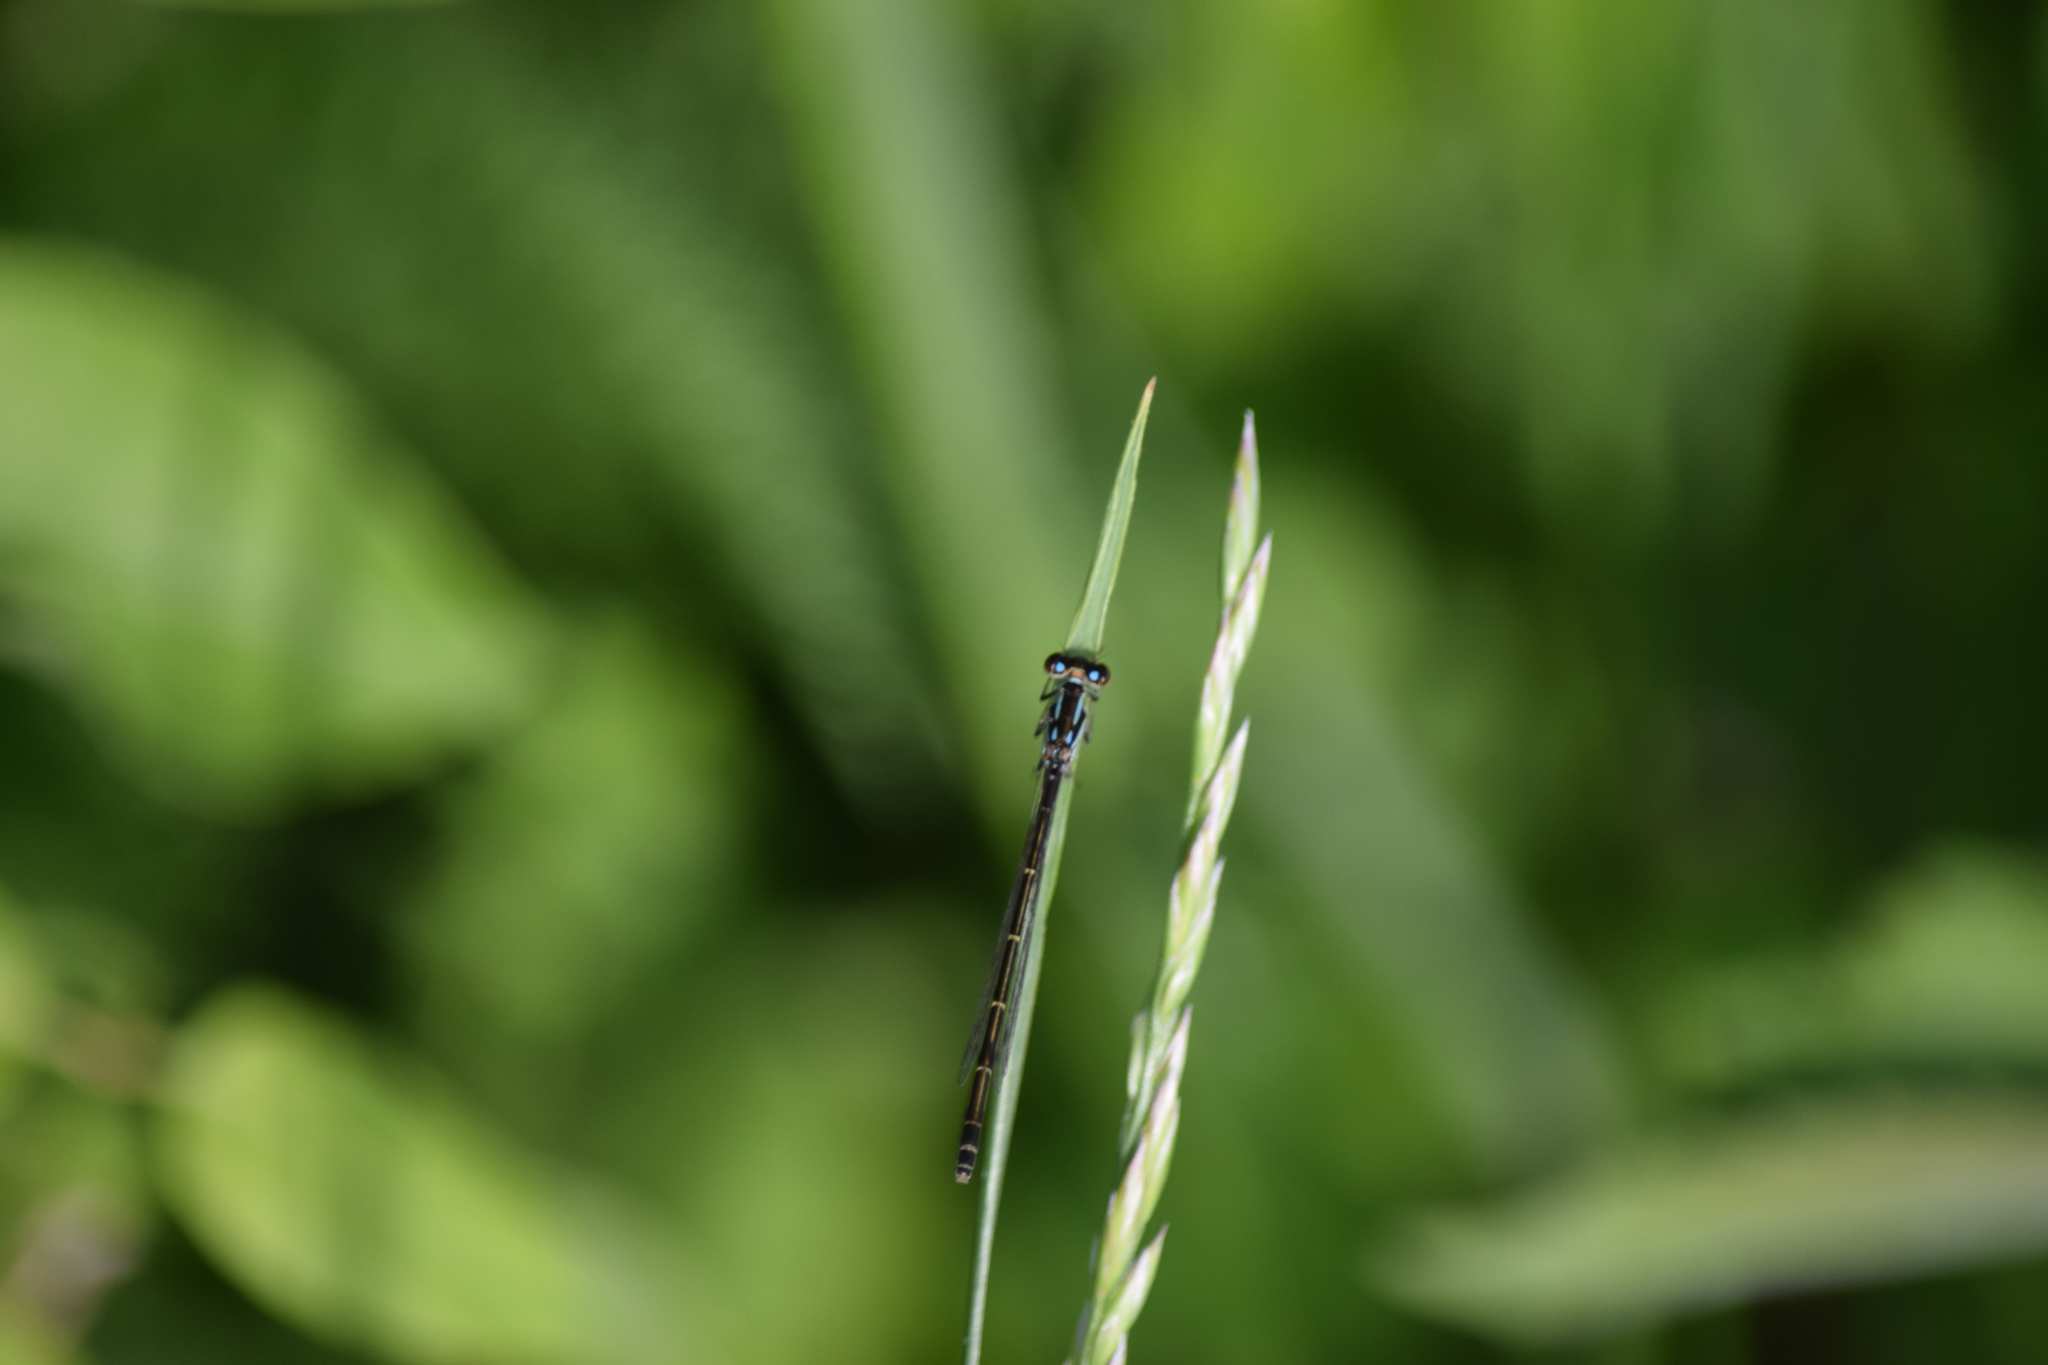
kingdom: Animalia
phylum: Arthropoda
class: Insecta
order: Odonata
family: Coenagrionidae
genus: Ischnura
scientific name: Ischnura posita
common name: Fragile forktail
